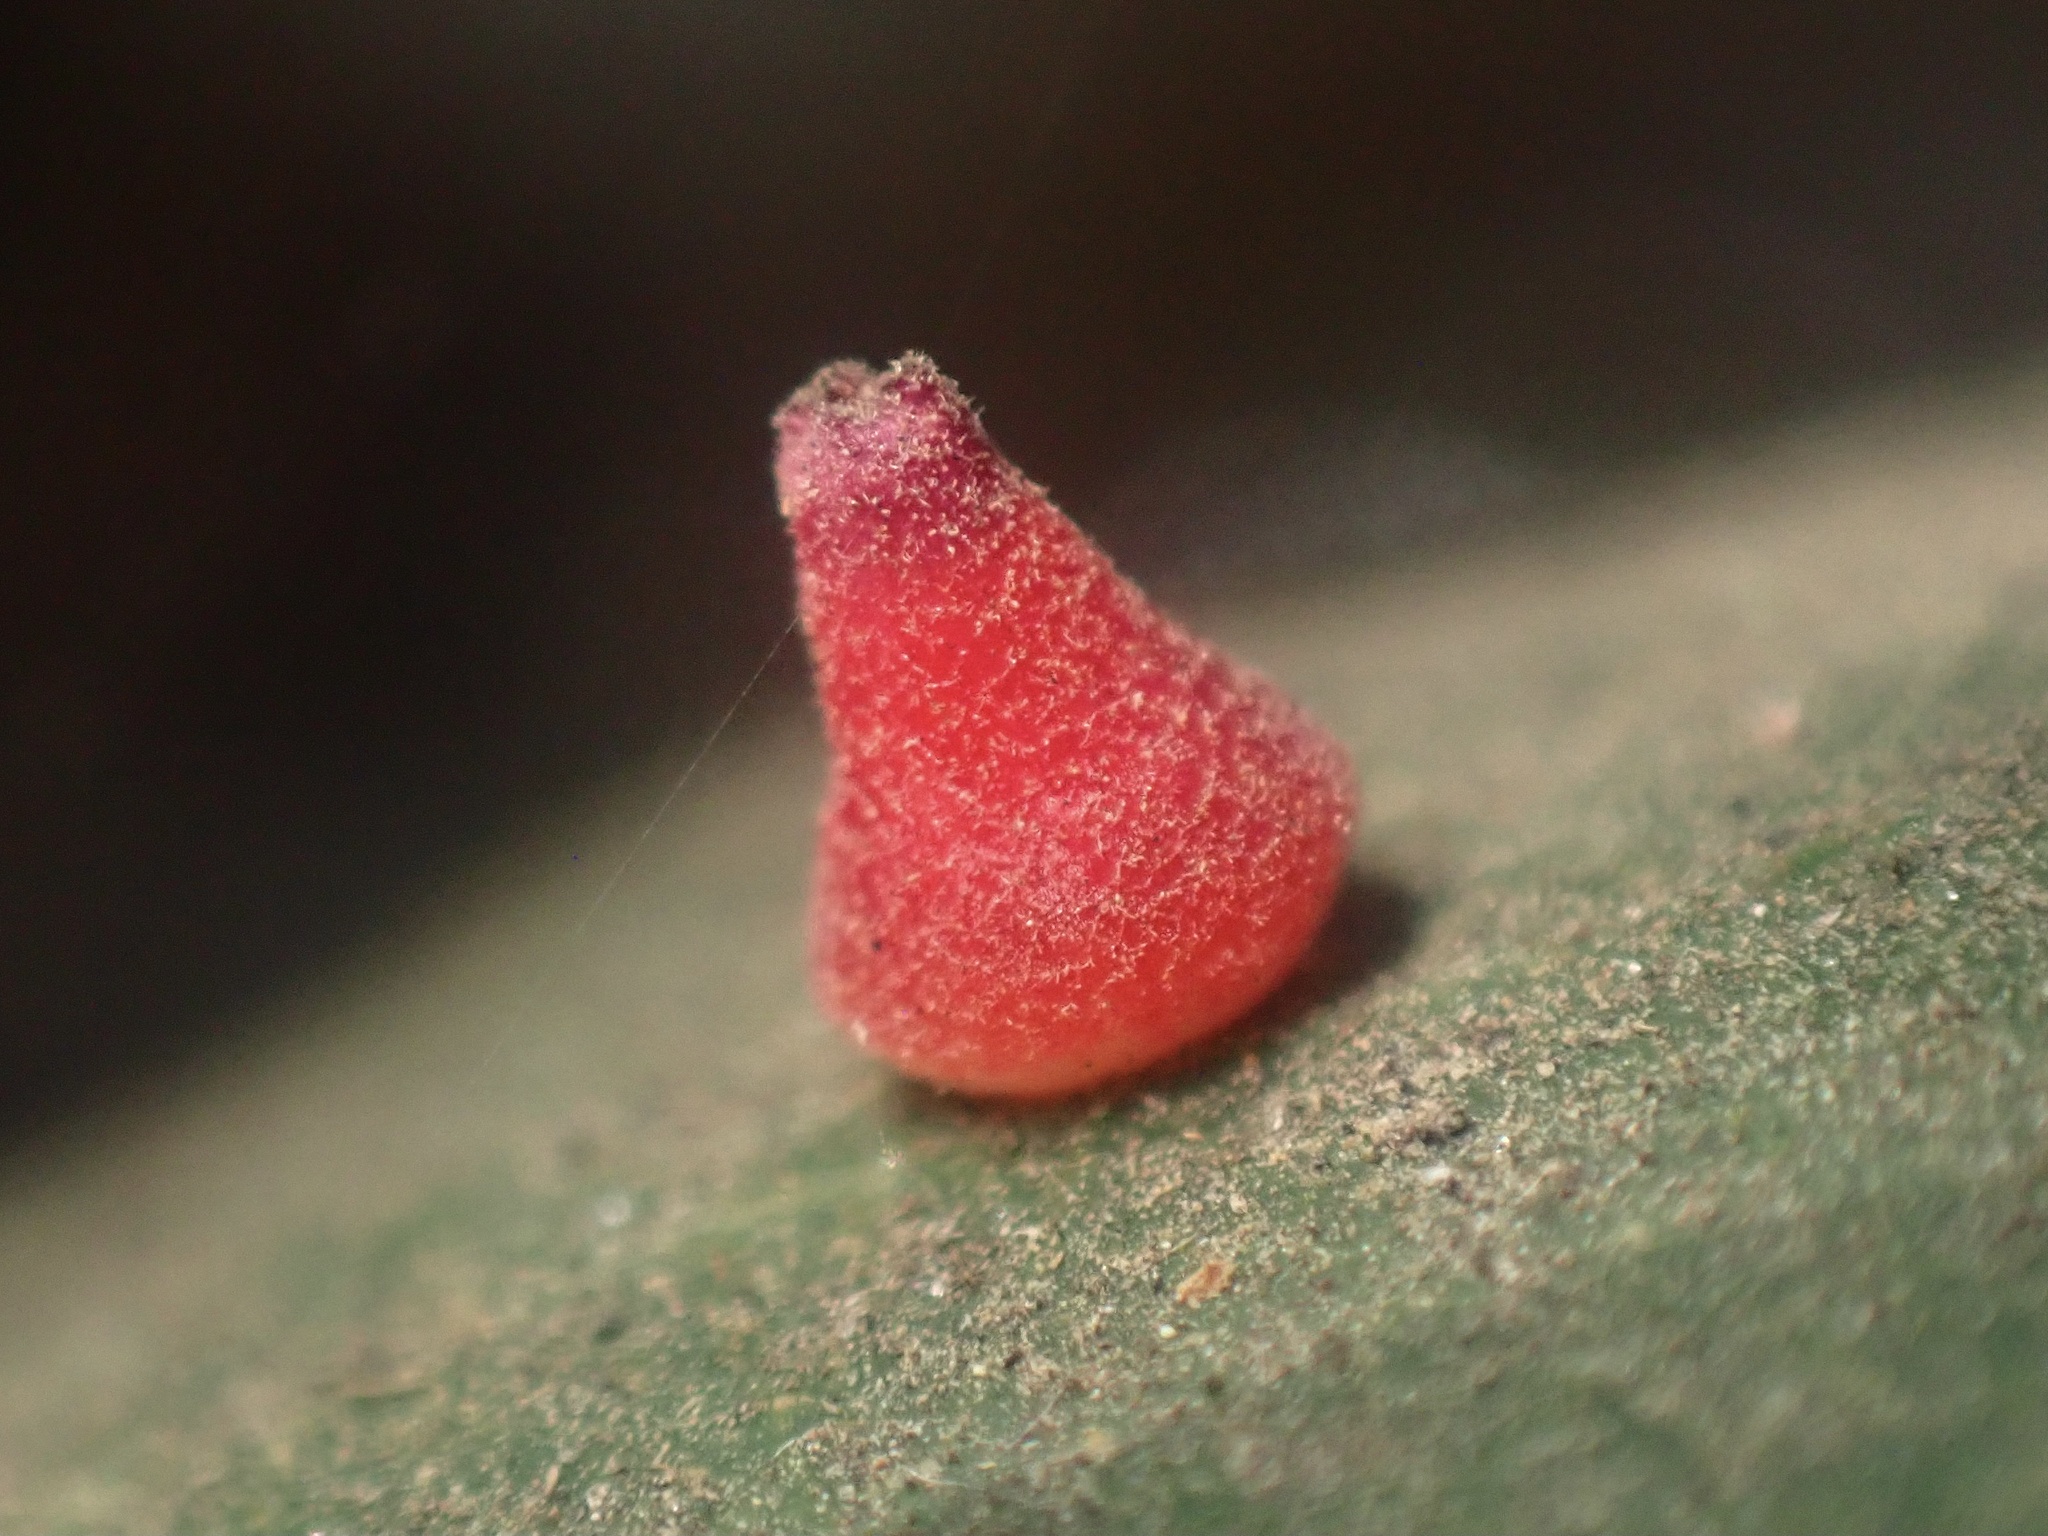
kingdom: Animalia
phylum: Arthropoda
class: Insecta
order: Hymenoptera
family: Cynipidae
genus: Andricus
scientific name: Andricus
